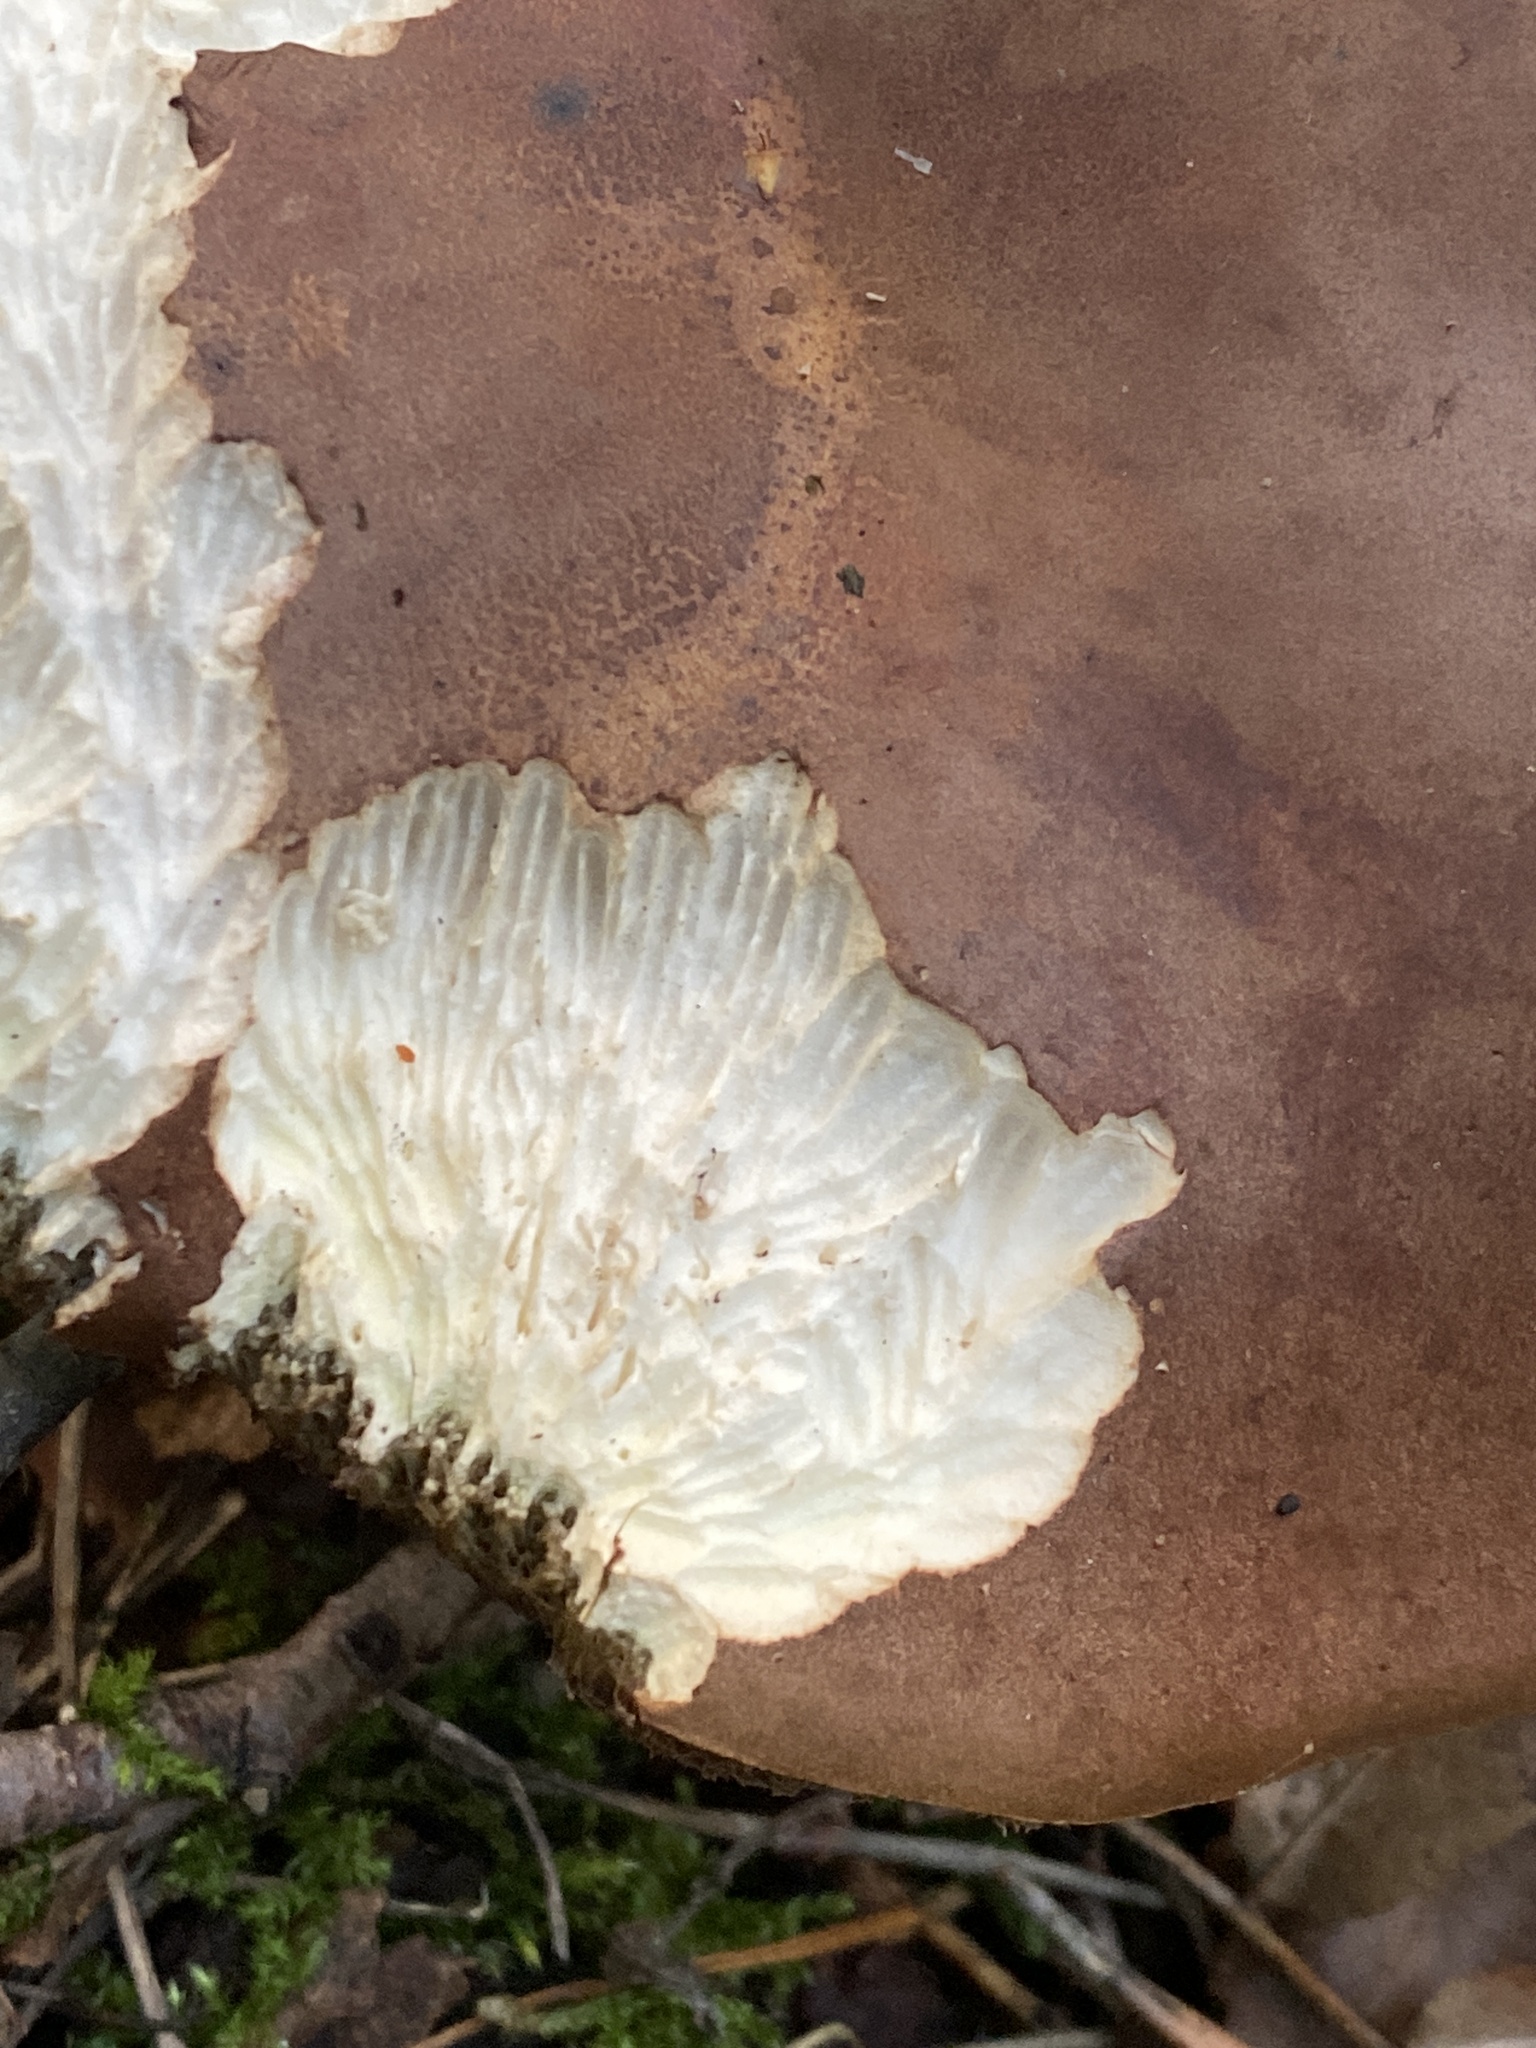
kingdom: Fungi
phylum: Basidiomycota
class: Agaricomycetes
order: Boletales
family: Boletaceae
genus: Imleria
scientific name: Imleria badia
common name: Bay bolete
